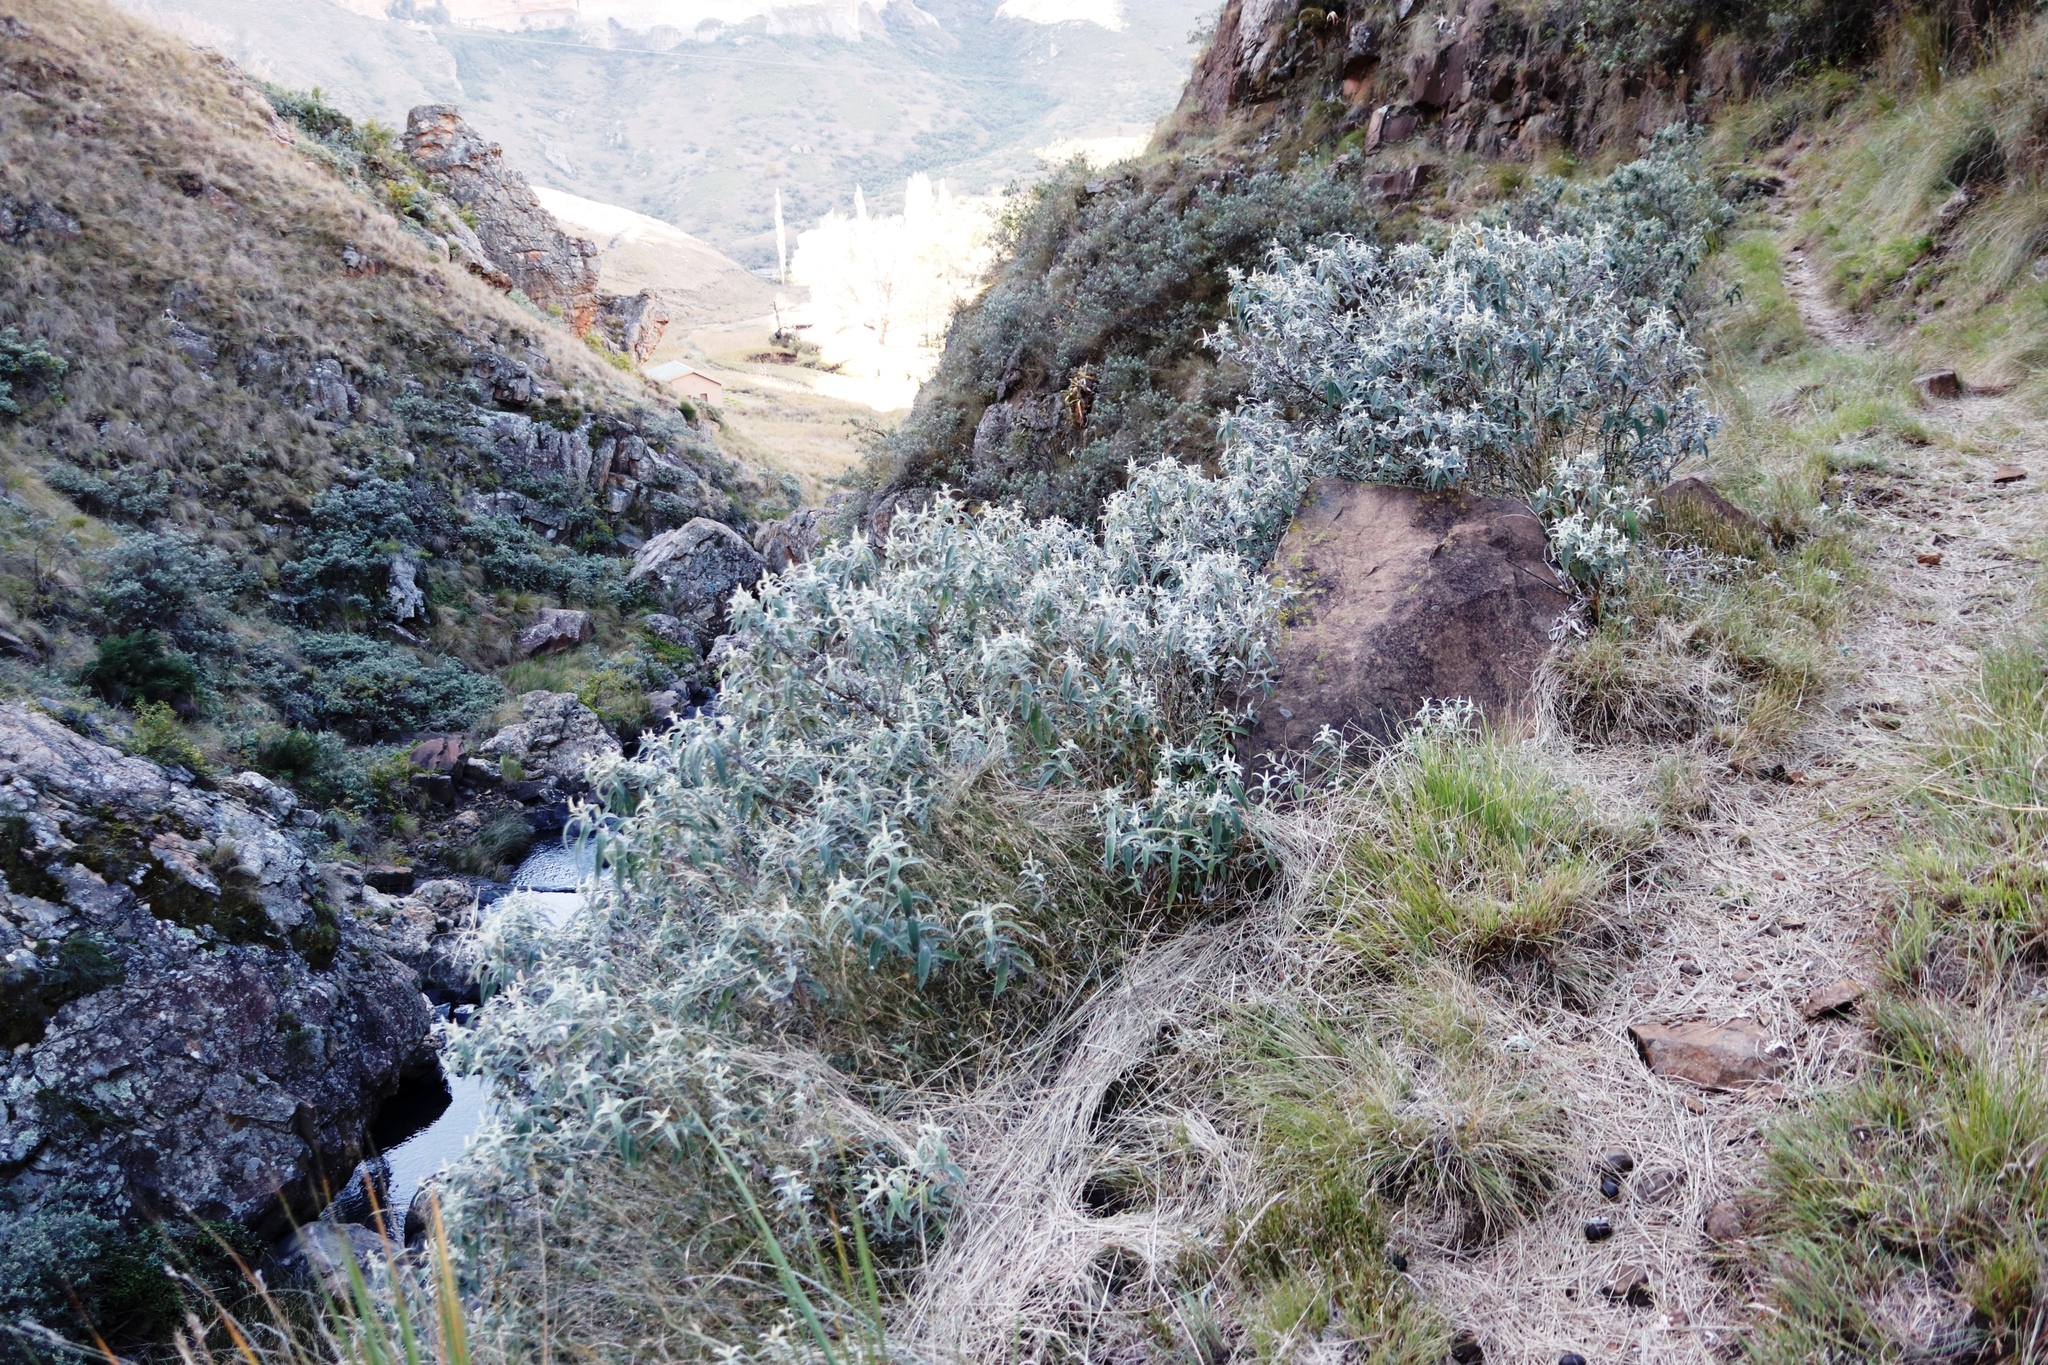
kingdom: Plantae
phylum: Tracheophyta
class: Magnoliopsida
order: Lamiales
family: Scrophulariaceae
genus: Buddleja
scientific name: Buddleja salviifolia
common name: Sagewood
